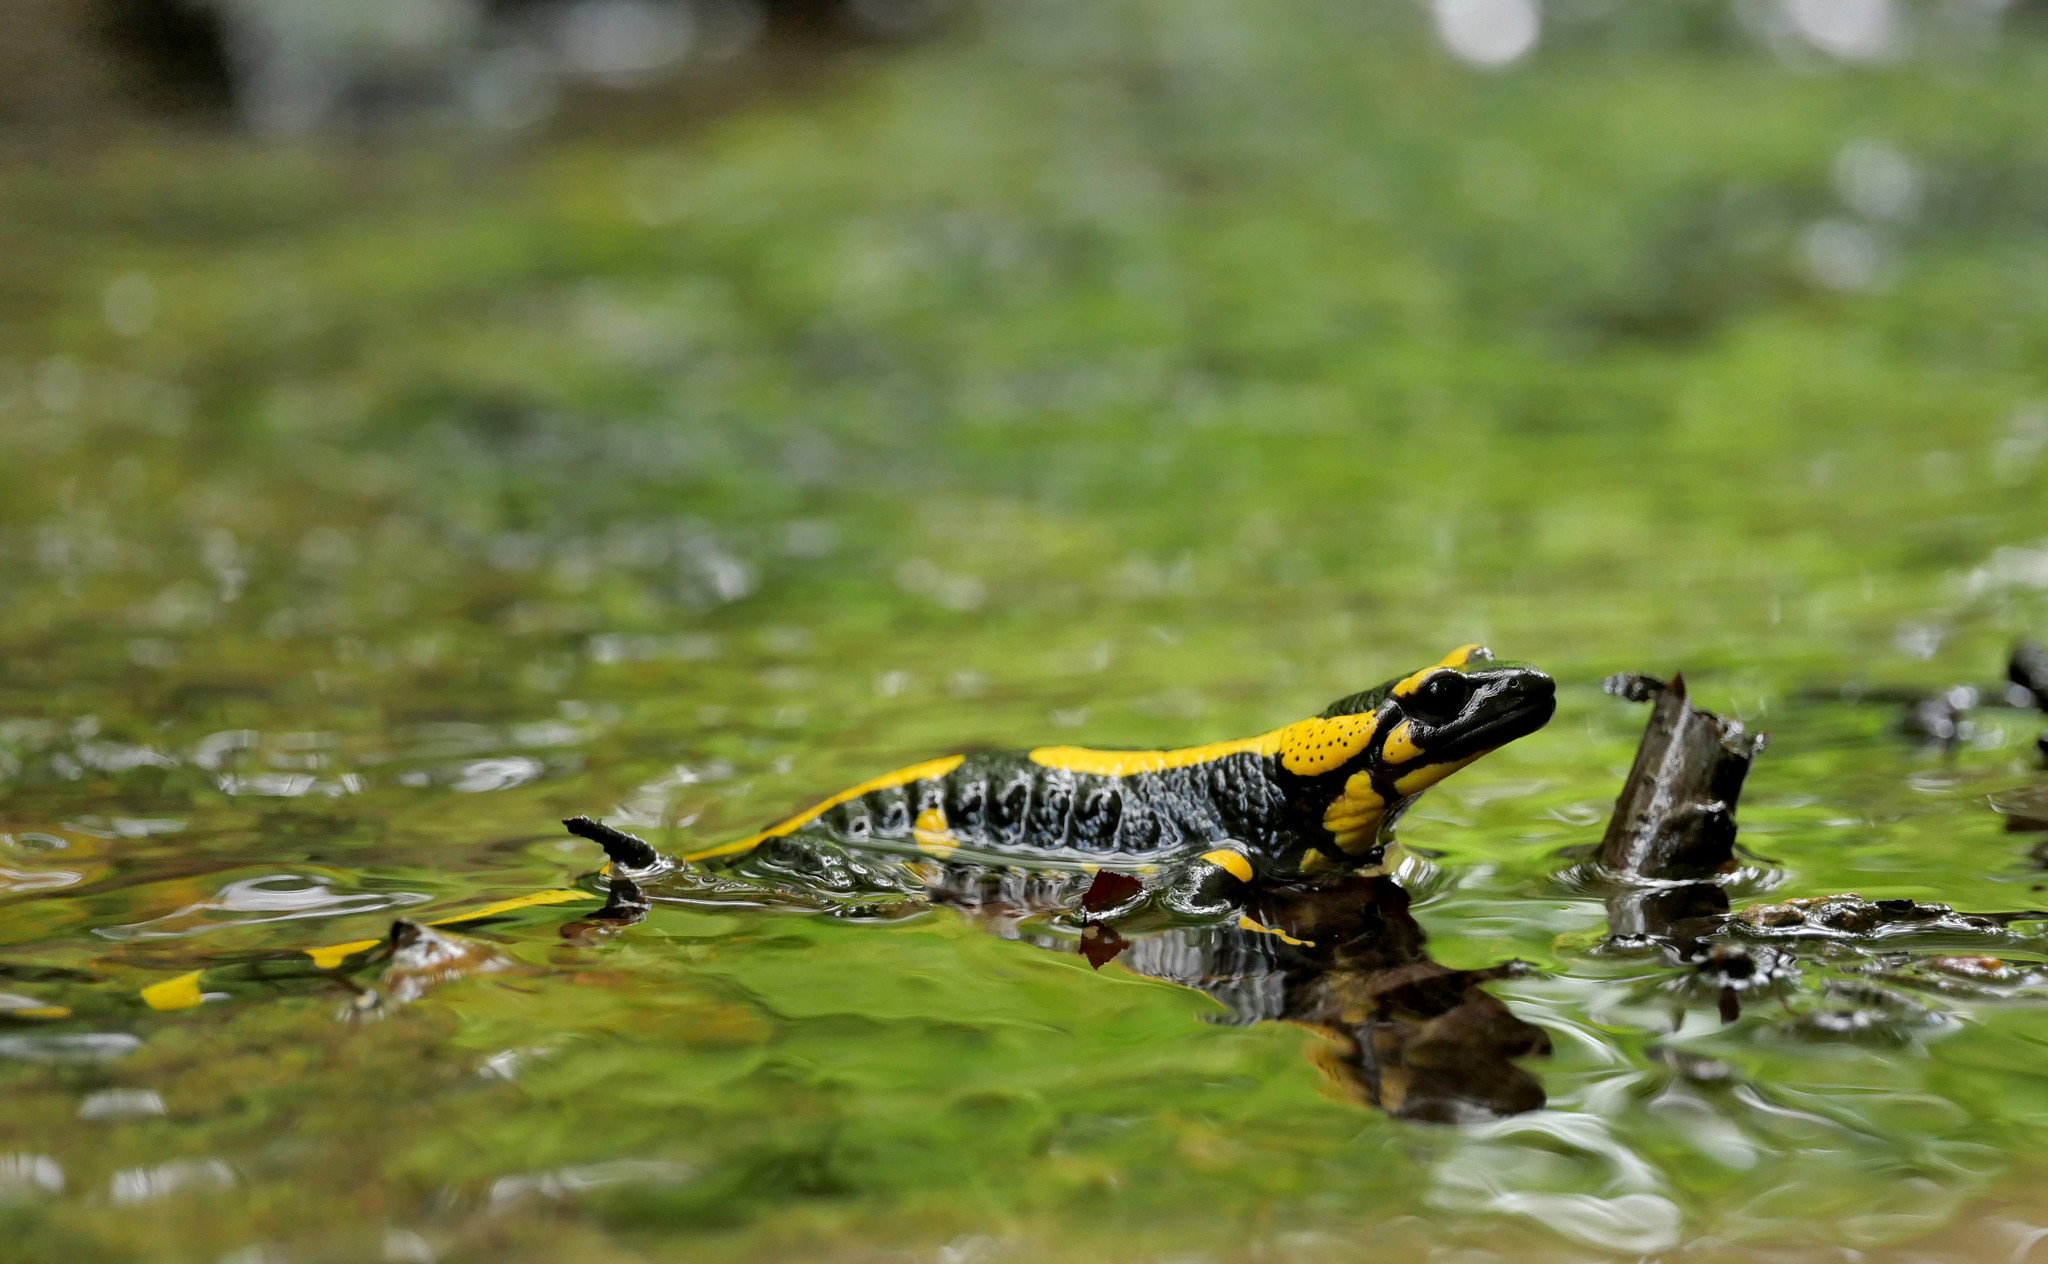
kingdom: Animalia
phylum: Chordata
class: Amphibia
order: Caudata
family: Salamandridae
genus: Salamandra
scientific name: Salamandra salamandra
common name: Fire salamander
